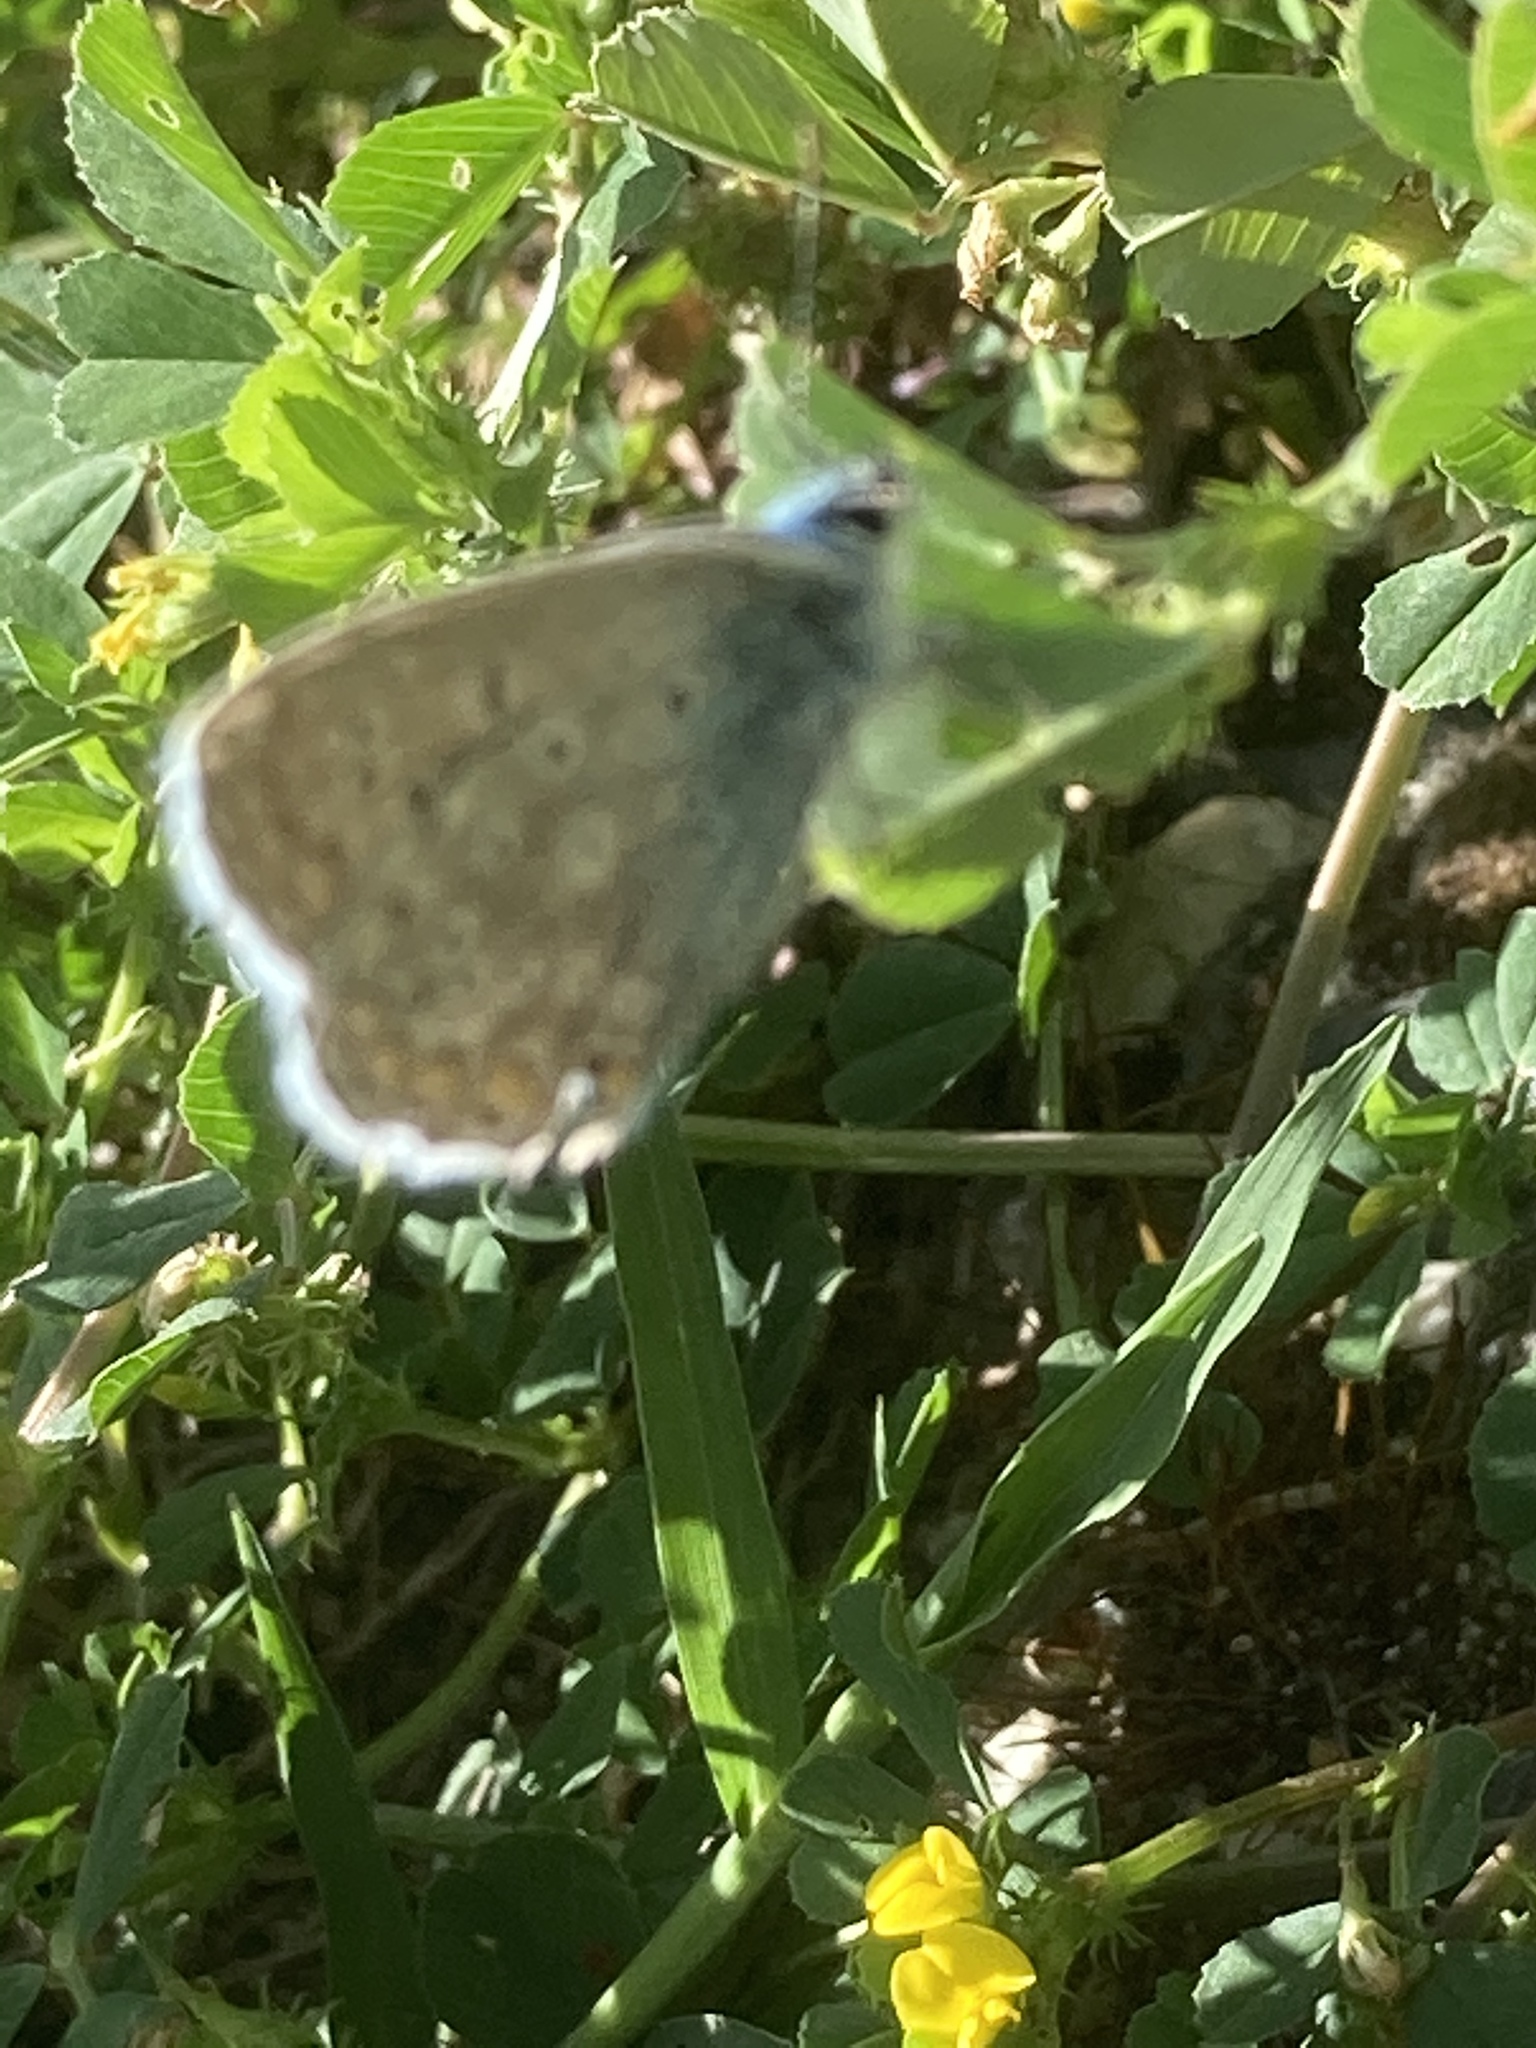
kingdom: Animalia
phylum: Arthropoda
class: Insecta
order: Lepidoptera
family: Lycaenidae
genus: Polyommatus
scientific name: Polyommatus icarus
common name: Common blue
